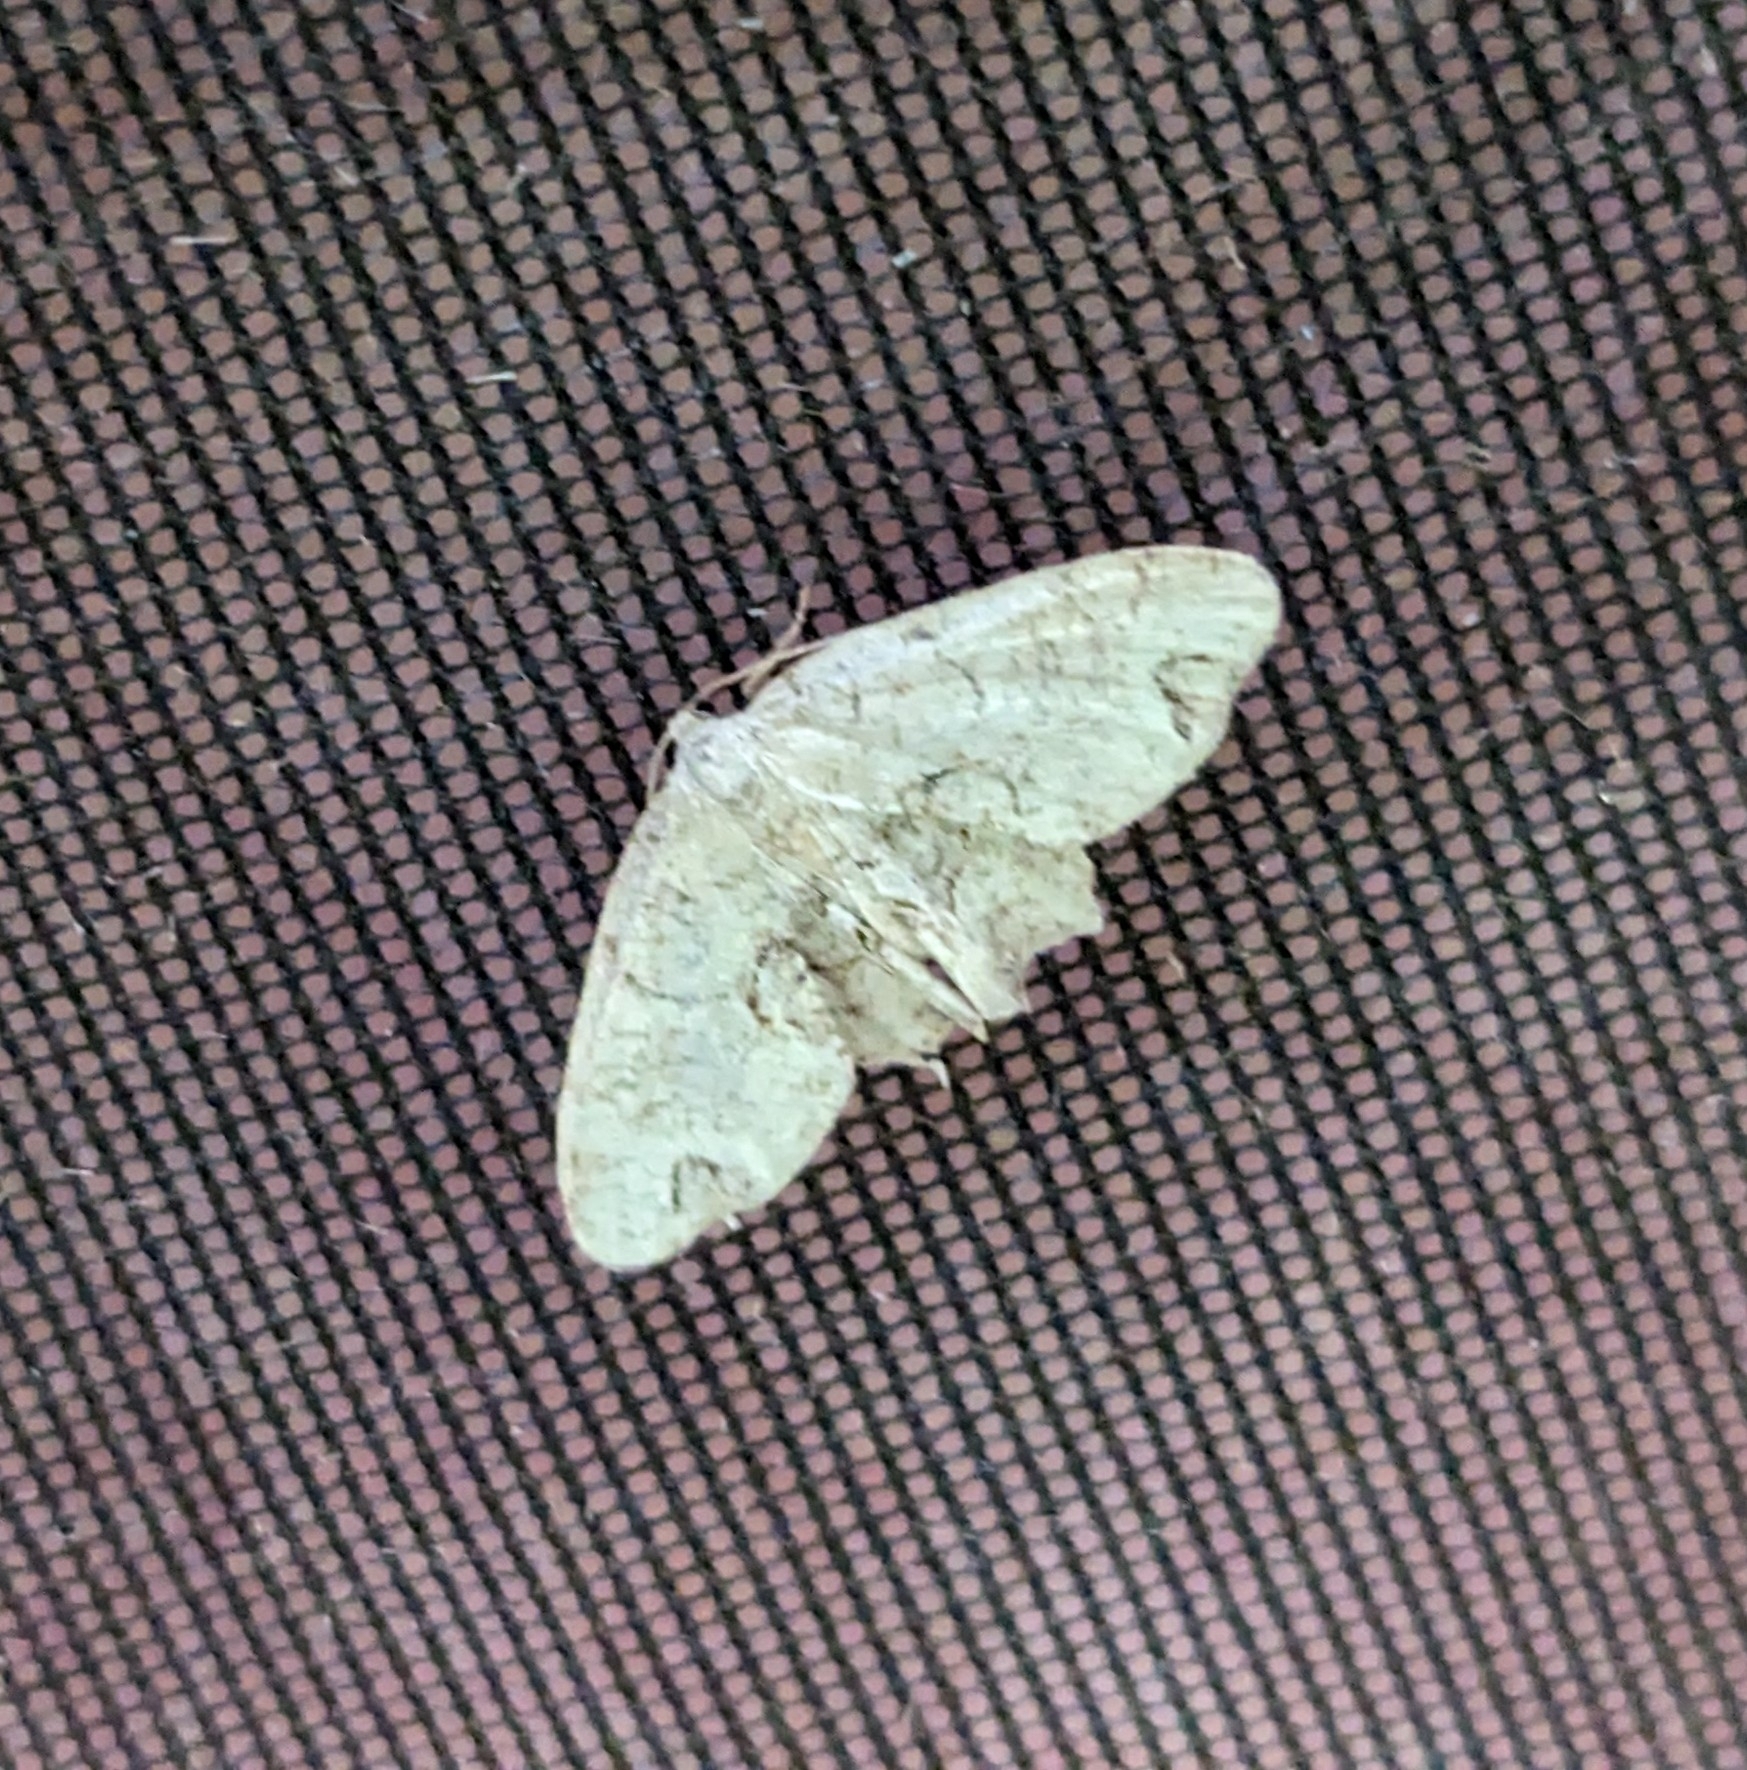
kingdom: Animalia
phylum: Arthropoda
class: Insecta
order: Lepidoptera
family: Uraniidae
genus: Epiplema
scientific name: Epiplema Callizzia amorata
